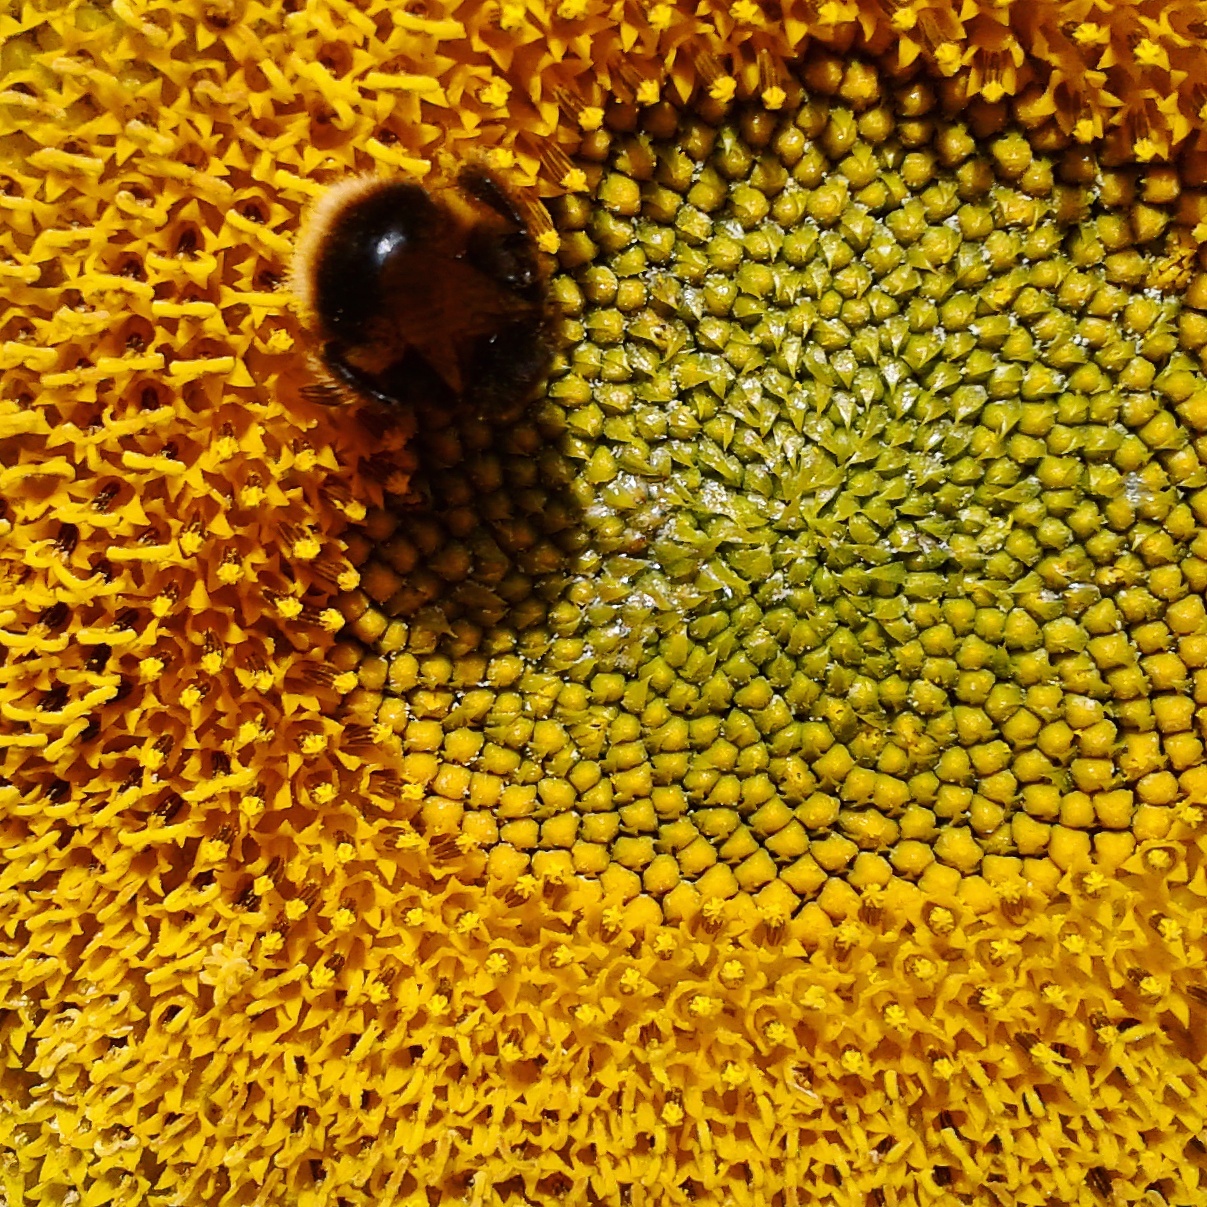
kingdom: Animalia
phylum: Arthropoda
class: Insecta
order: Hymenoptera
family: Apidae
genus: Bombus
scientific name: Bombus terrestris
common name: Buff-tailed bumblebee
